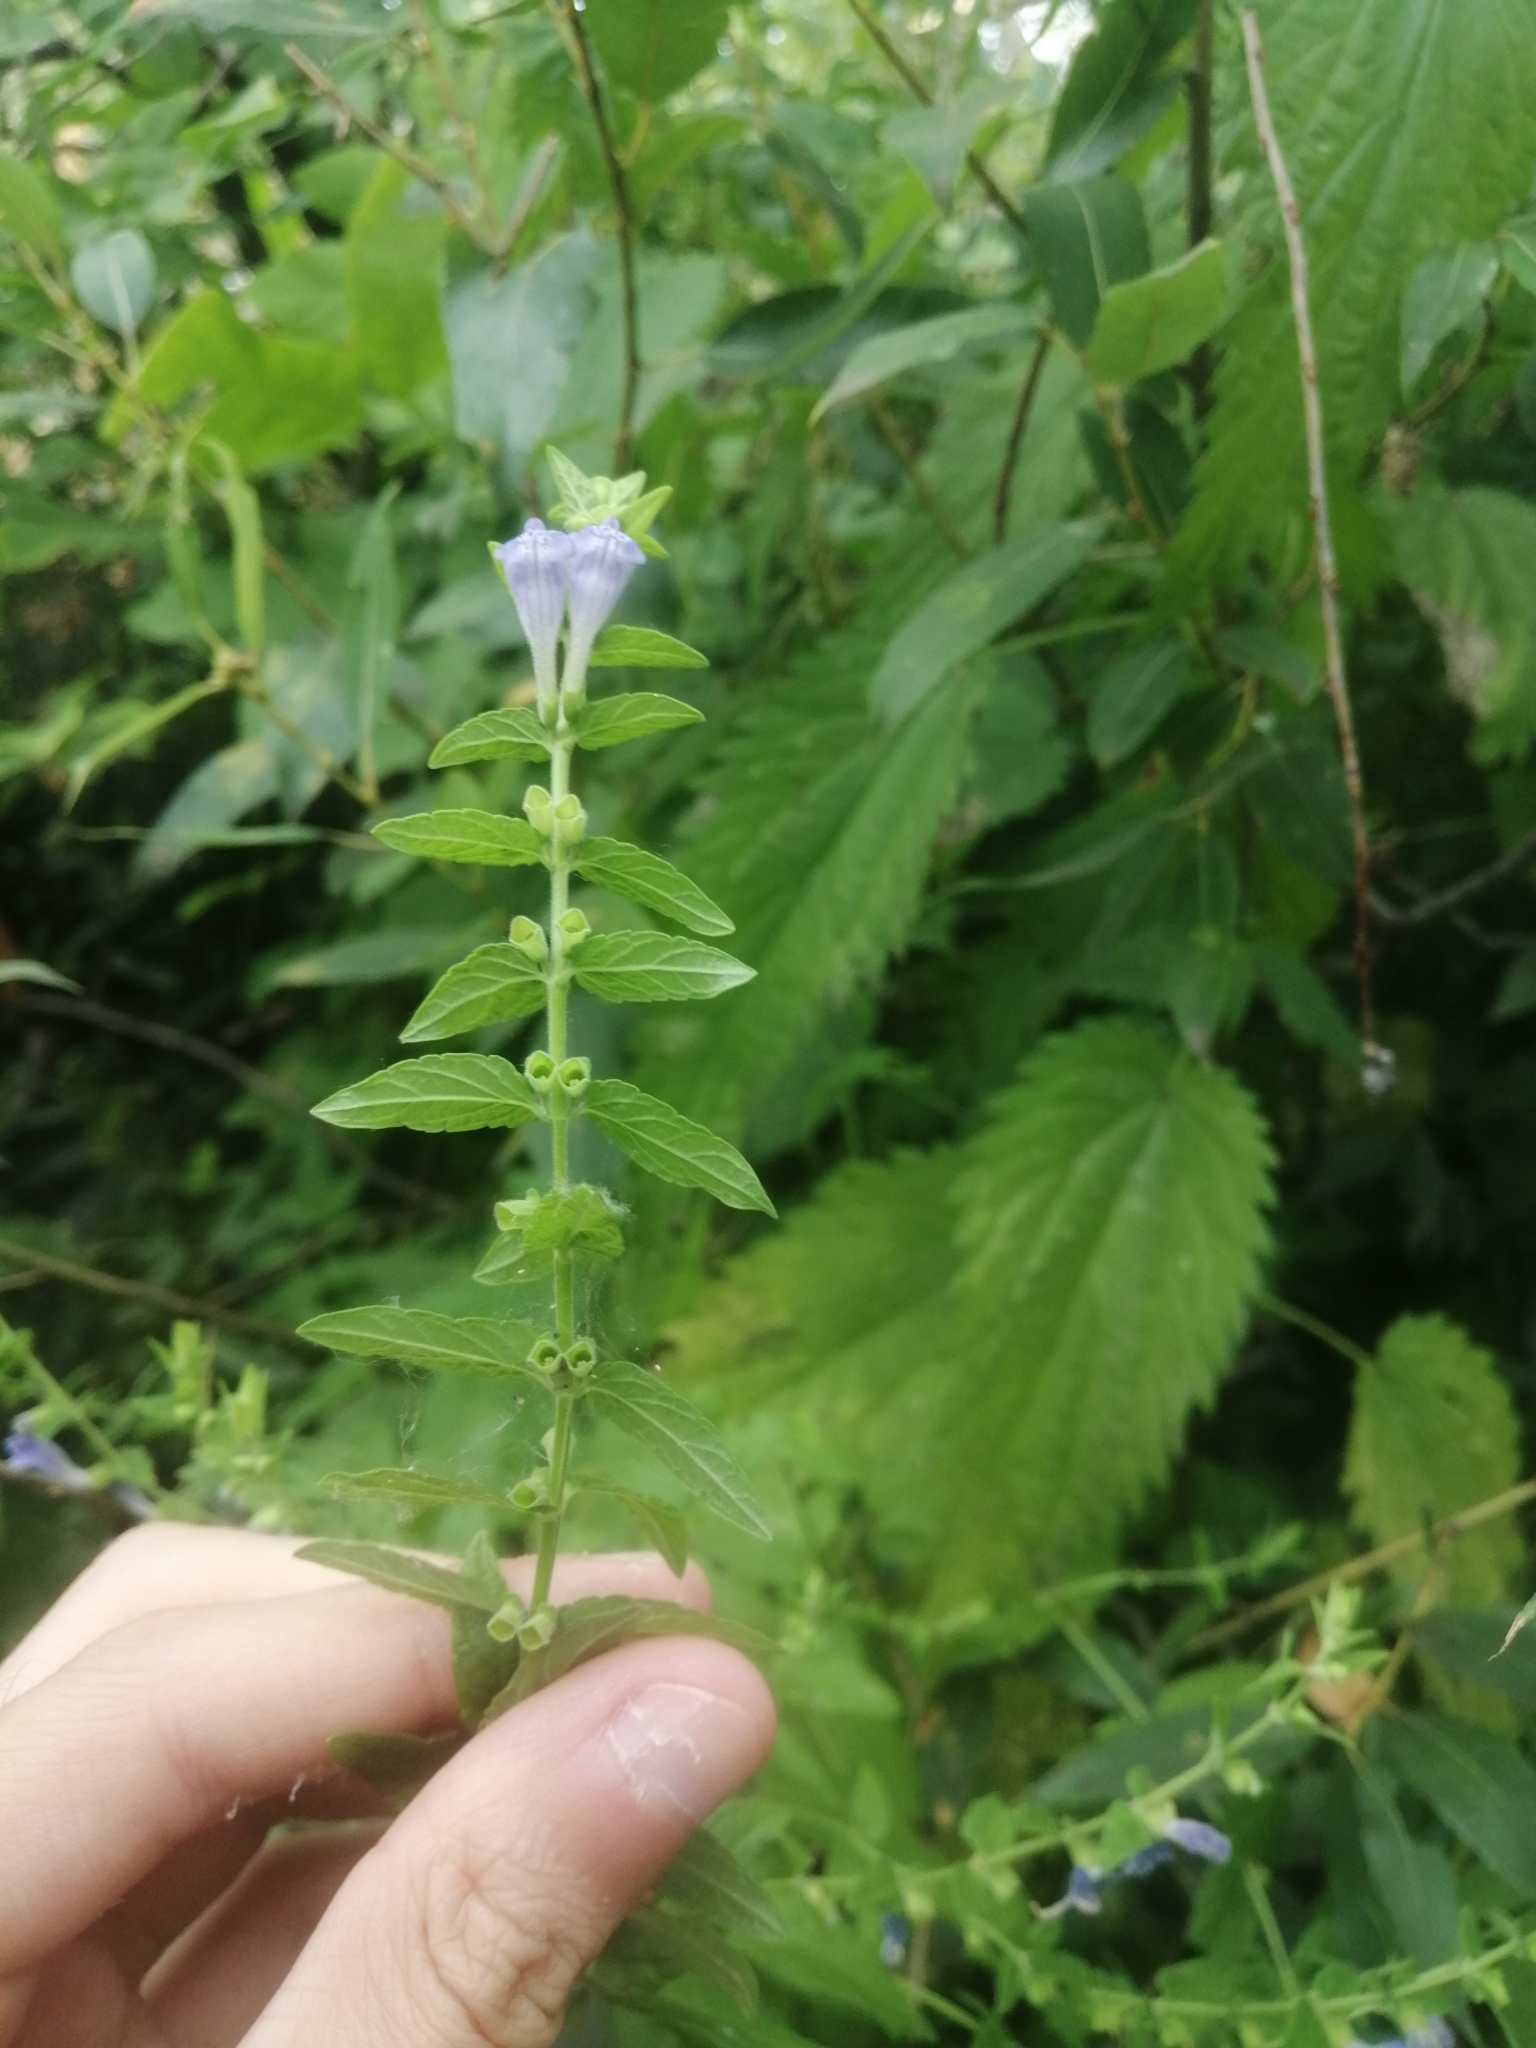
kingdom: Plantae
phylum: Tracheophyta
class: Magnoliopsida
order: Lamiales
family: Lamiaceae
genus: Scutellaria
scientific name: Scutellaria galericulata
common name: Skullcap
